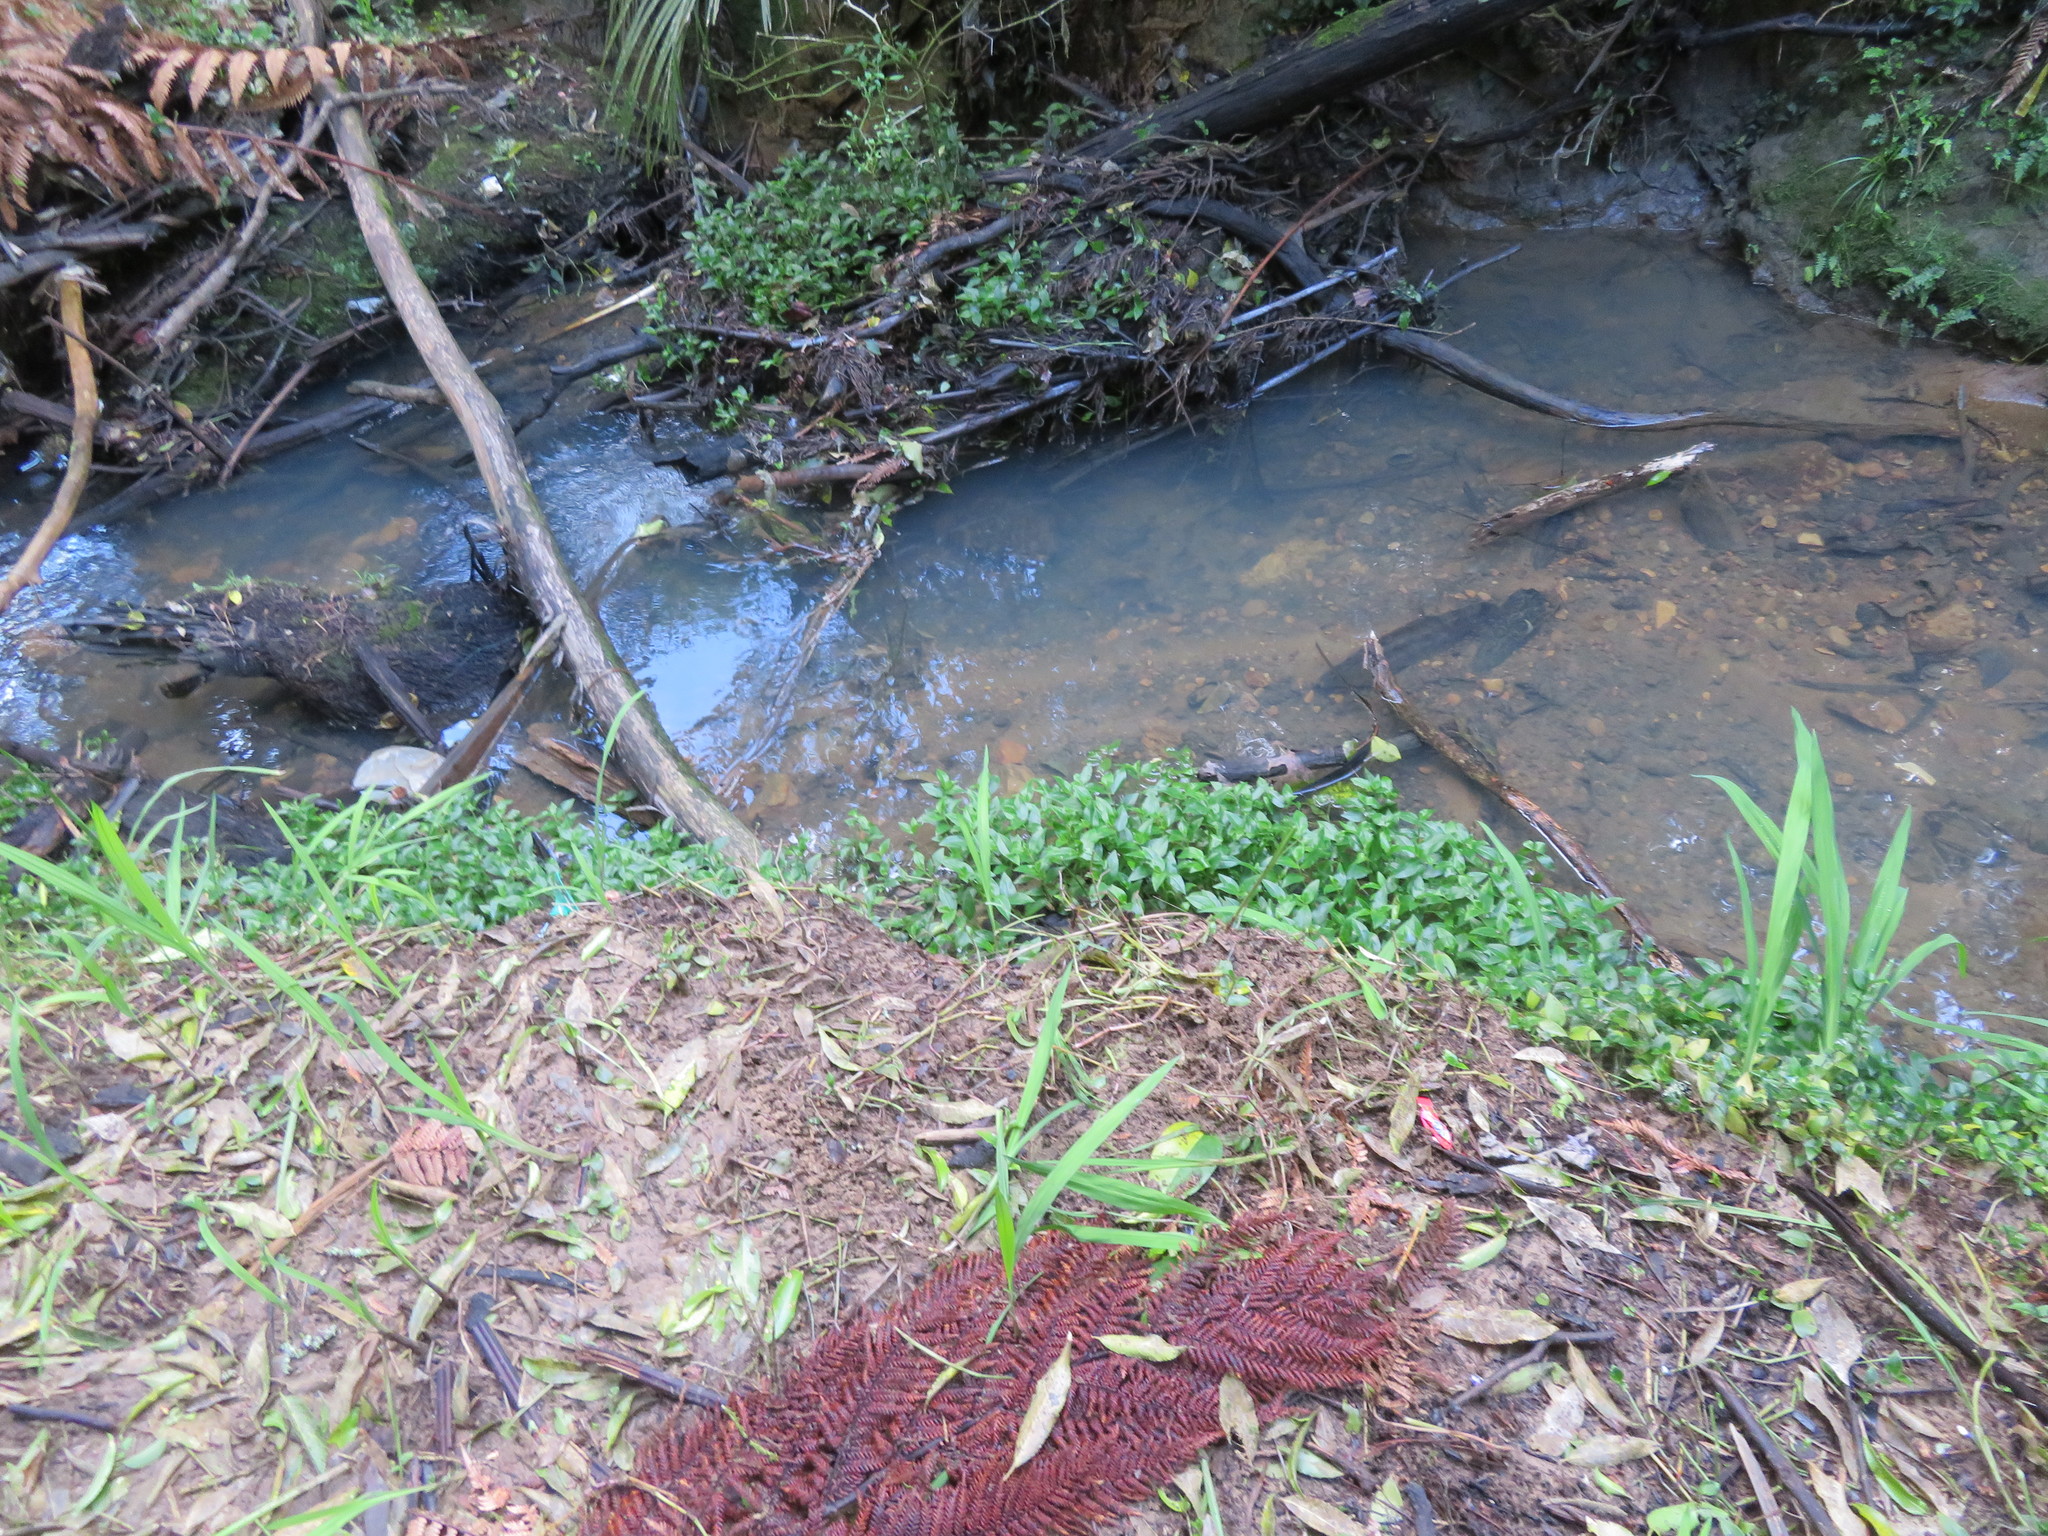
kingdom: Plantae
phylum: Tracheophyta
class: Liliopsida
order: Commelinales
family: Commelinaceae
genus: Tradescantia
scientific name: Tradescantia fluminensis
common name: Wandering-jew
